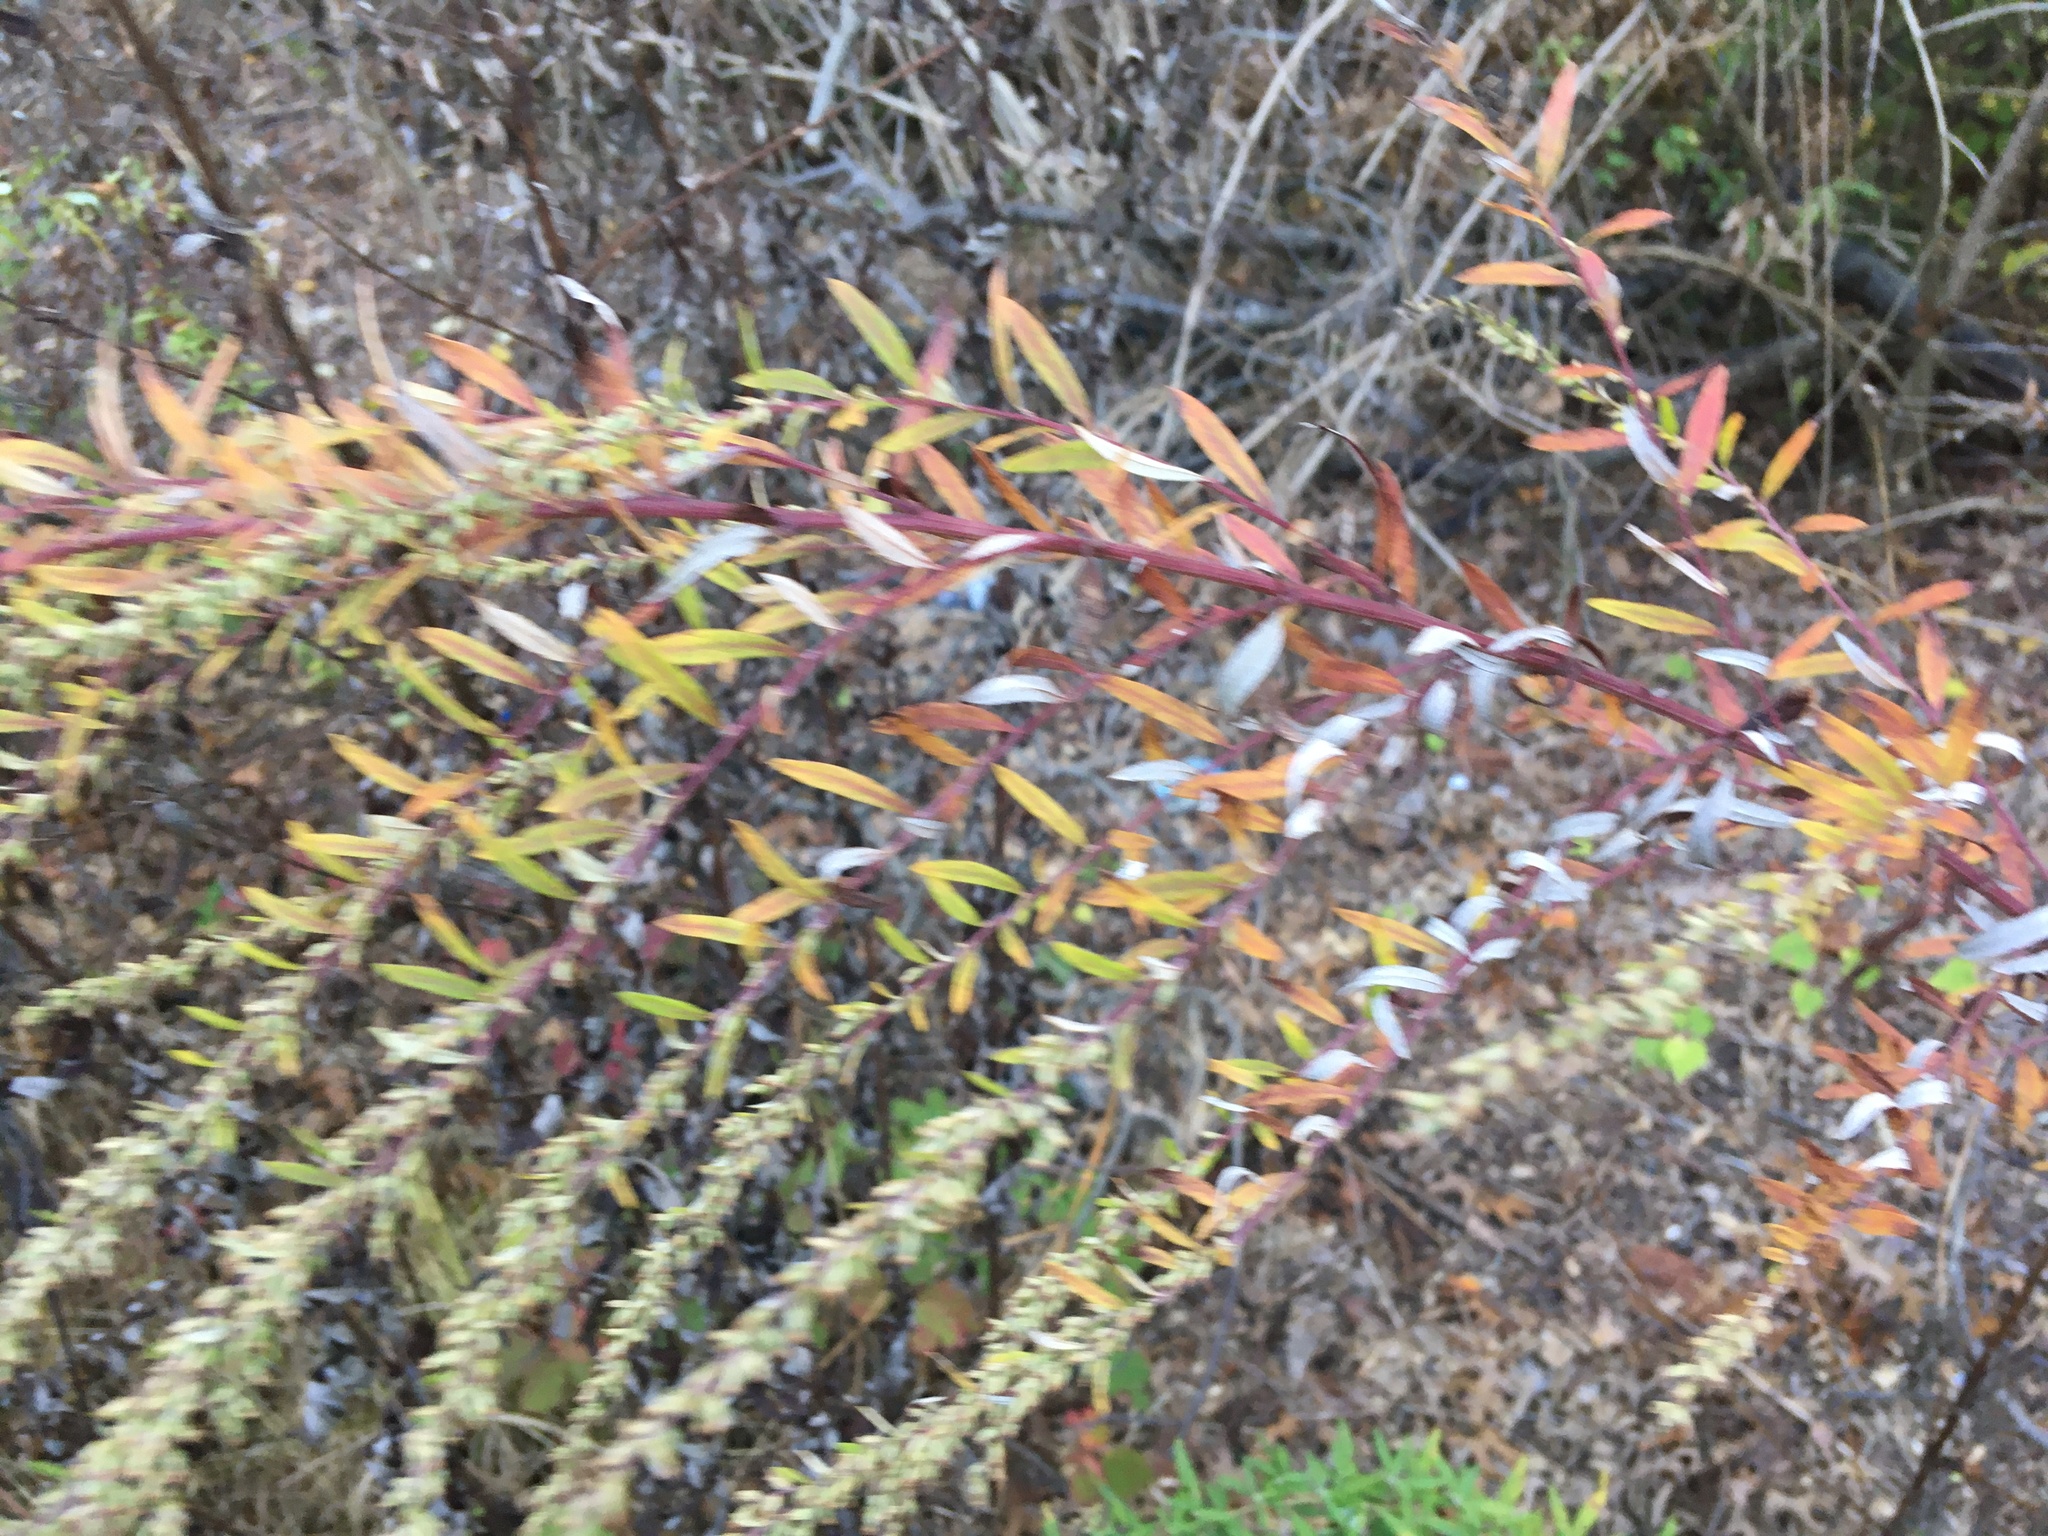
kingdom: Plantae
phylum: Tracheophyta
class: Magnoliopsida
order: Asterales
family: Asteraceae
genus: Artemisia
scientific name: Artemisia vulgaris
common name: Mugwort
